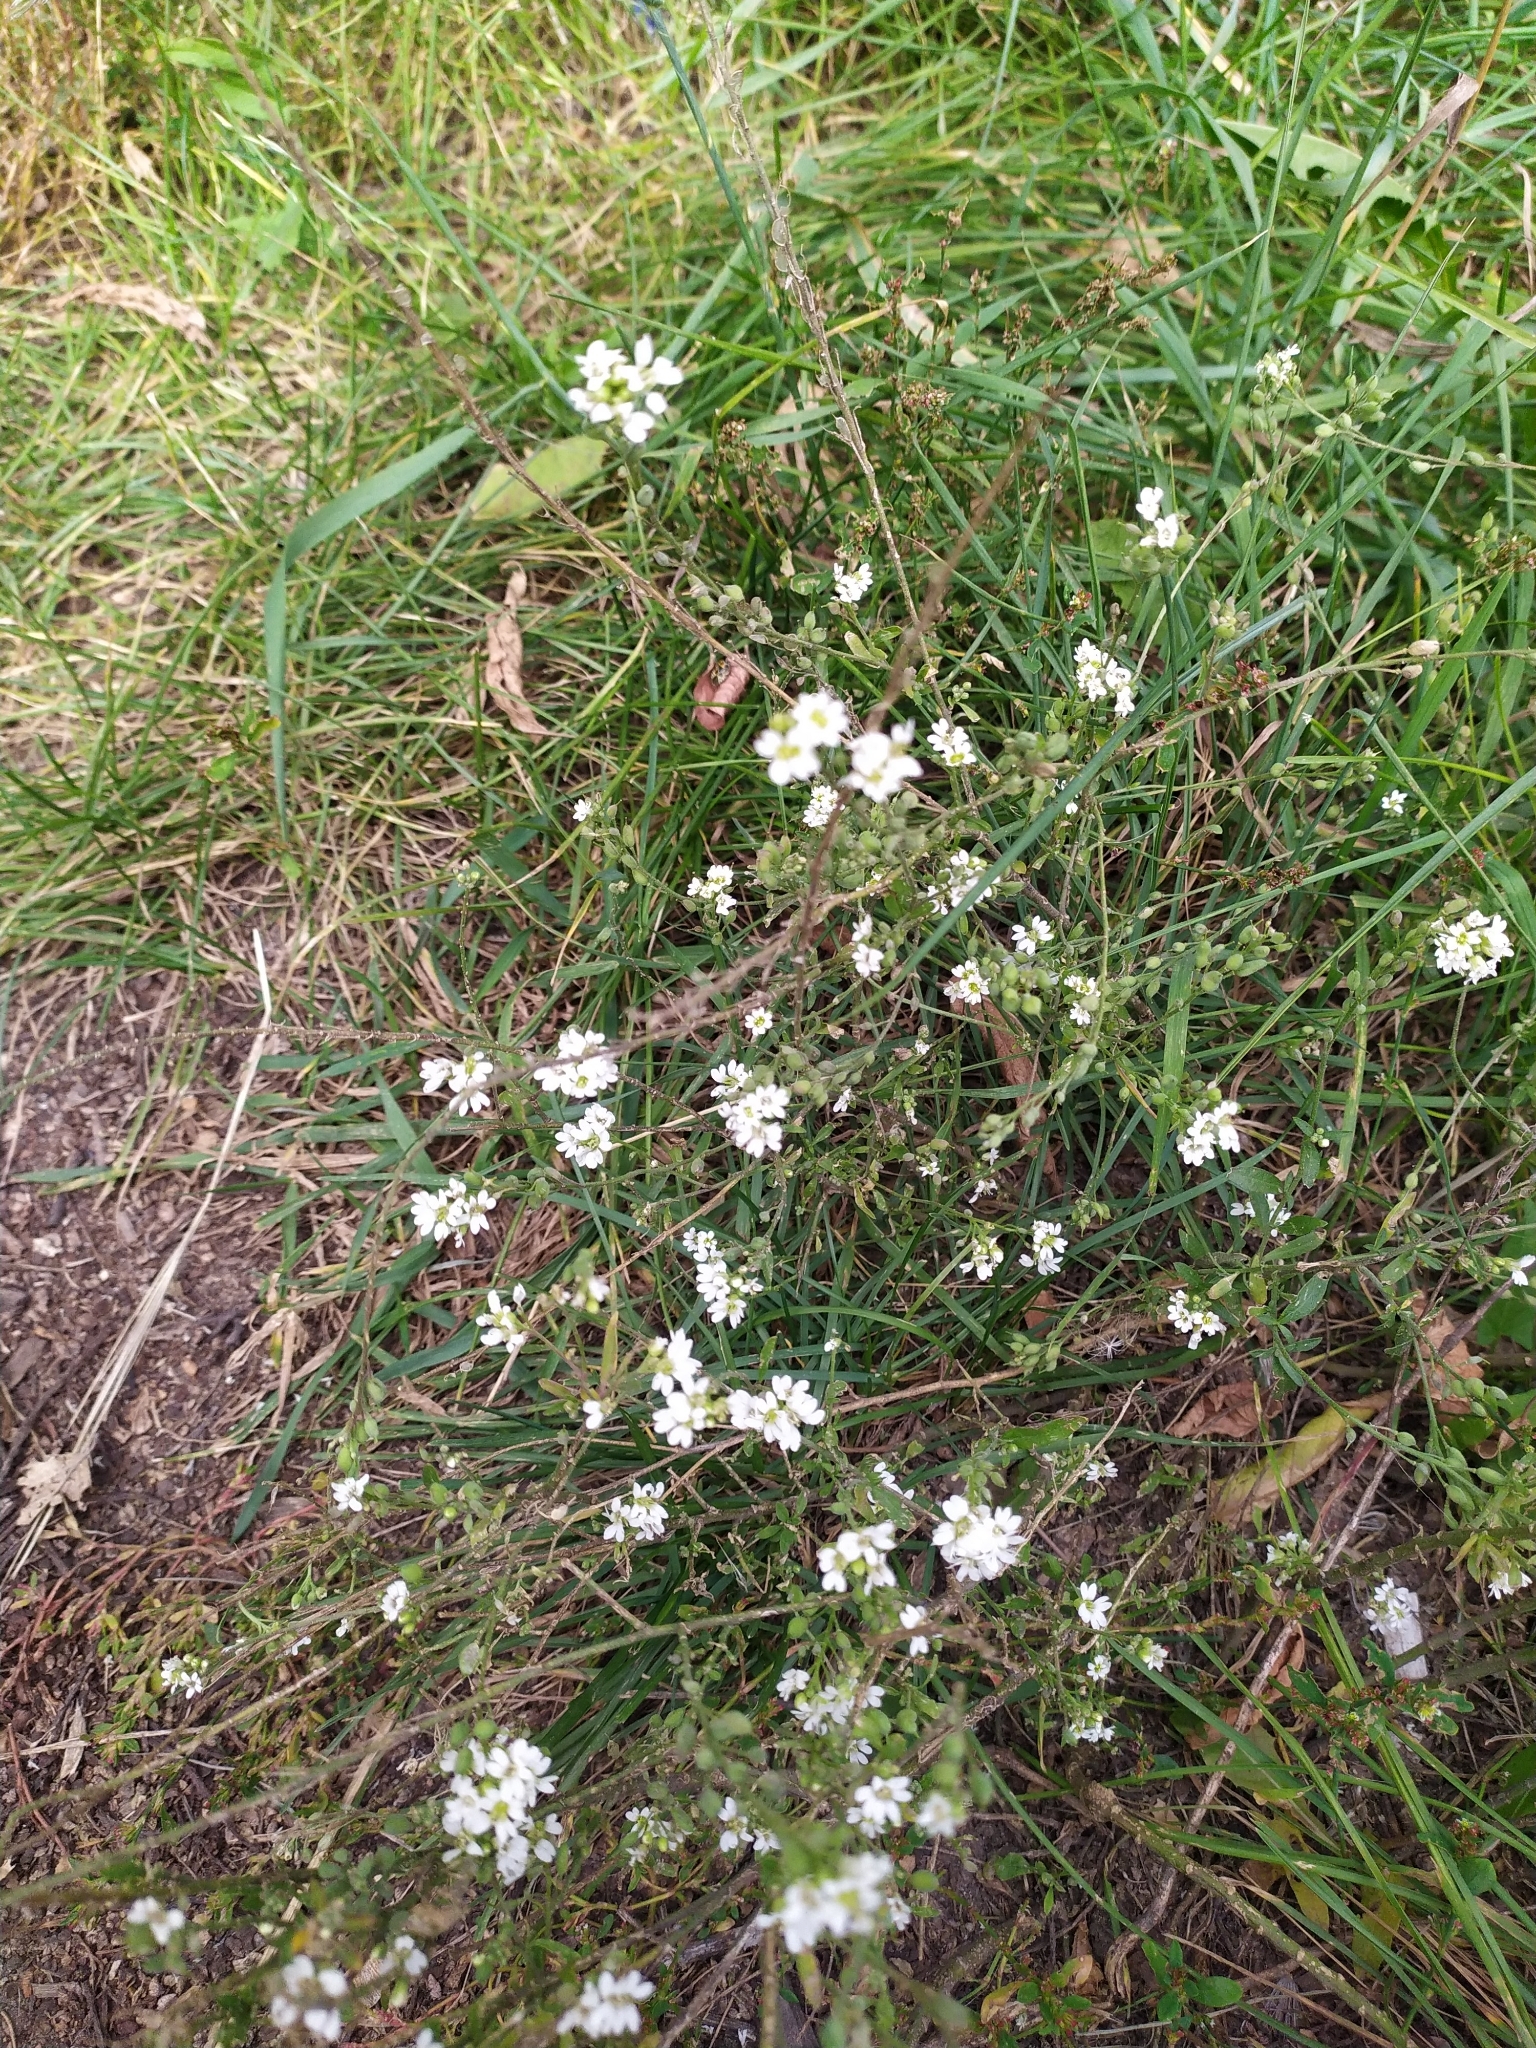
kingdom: Plantae
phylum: Tracheophyta
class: Magnoliopsida
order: Brassicales
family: Brassicaceae
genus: Berteroa
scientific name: Berteroa incana
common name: Hoary alison
